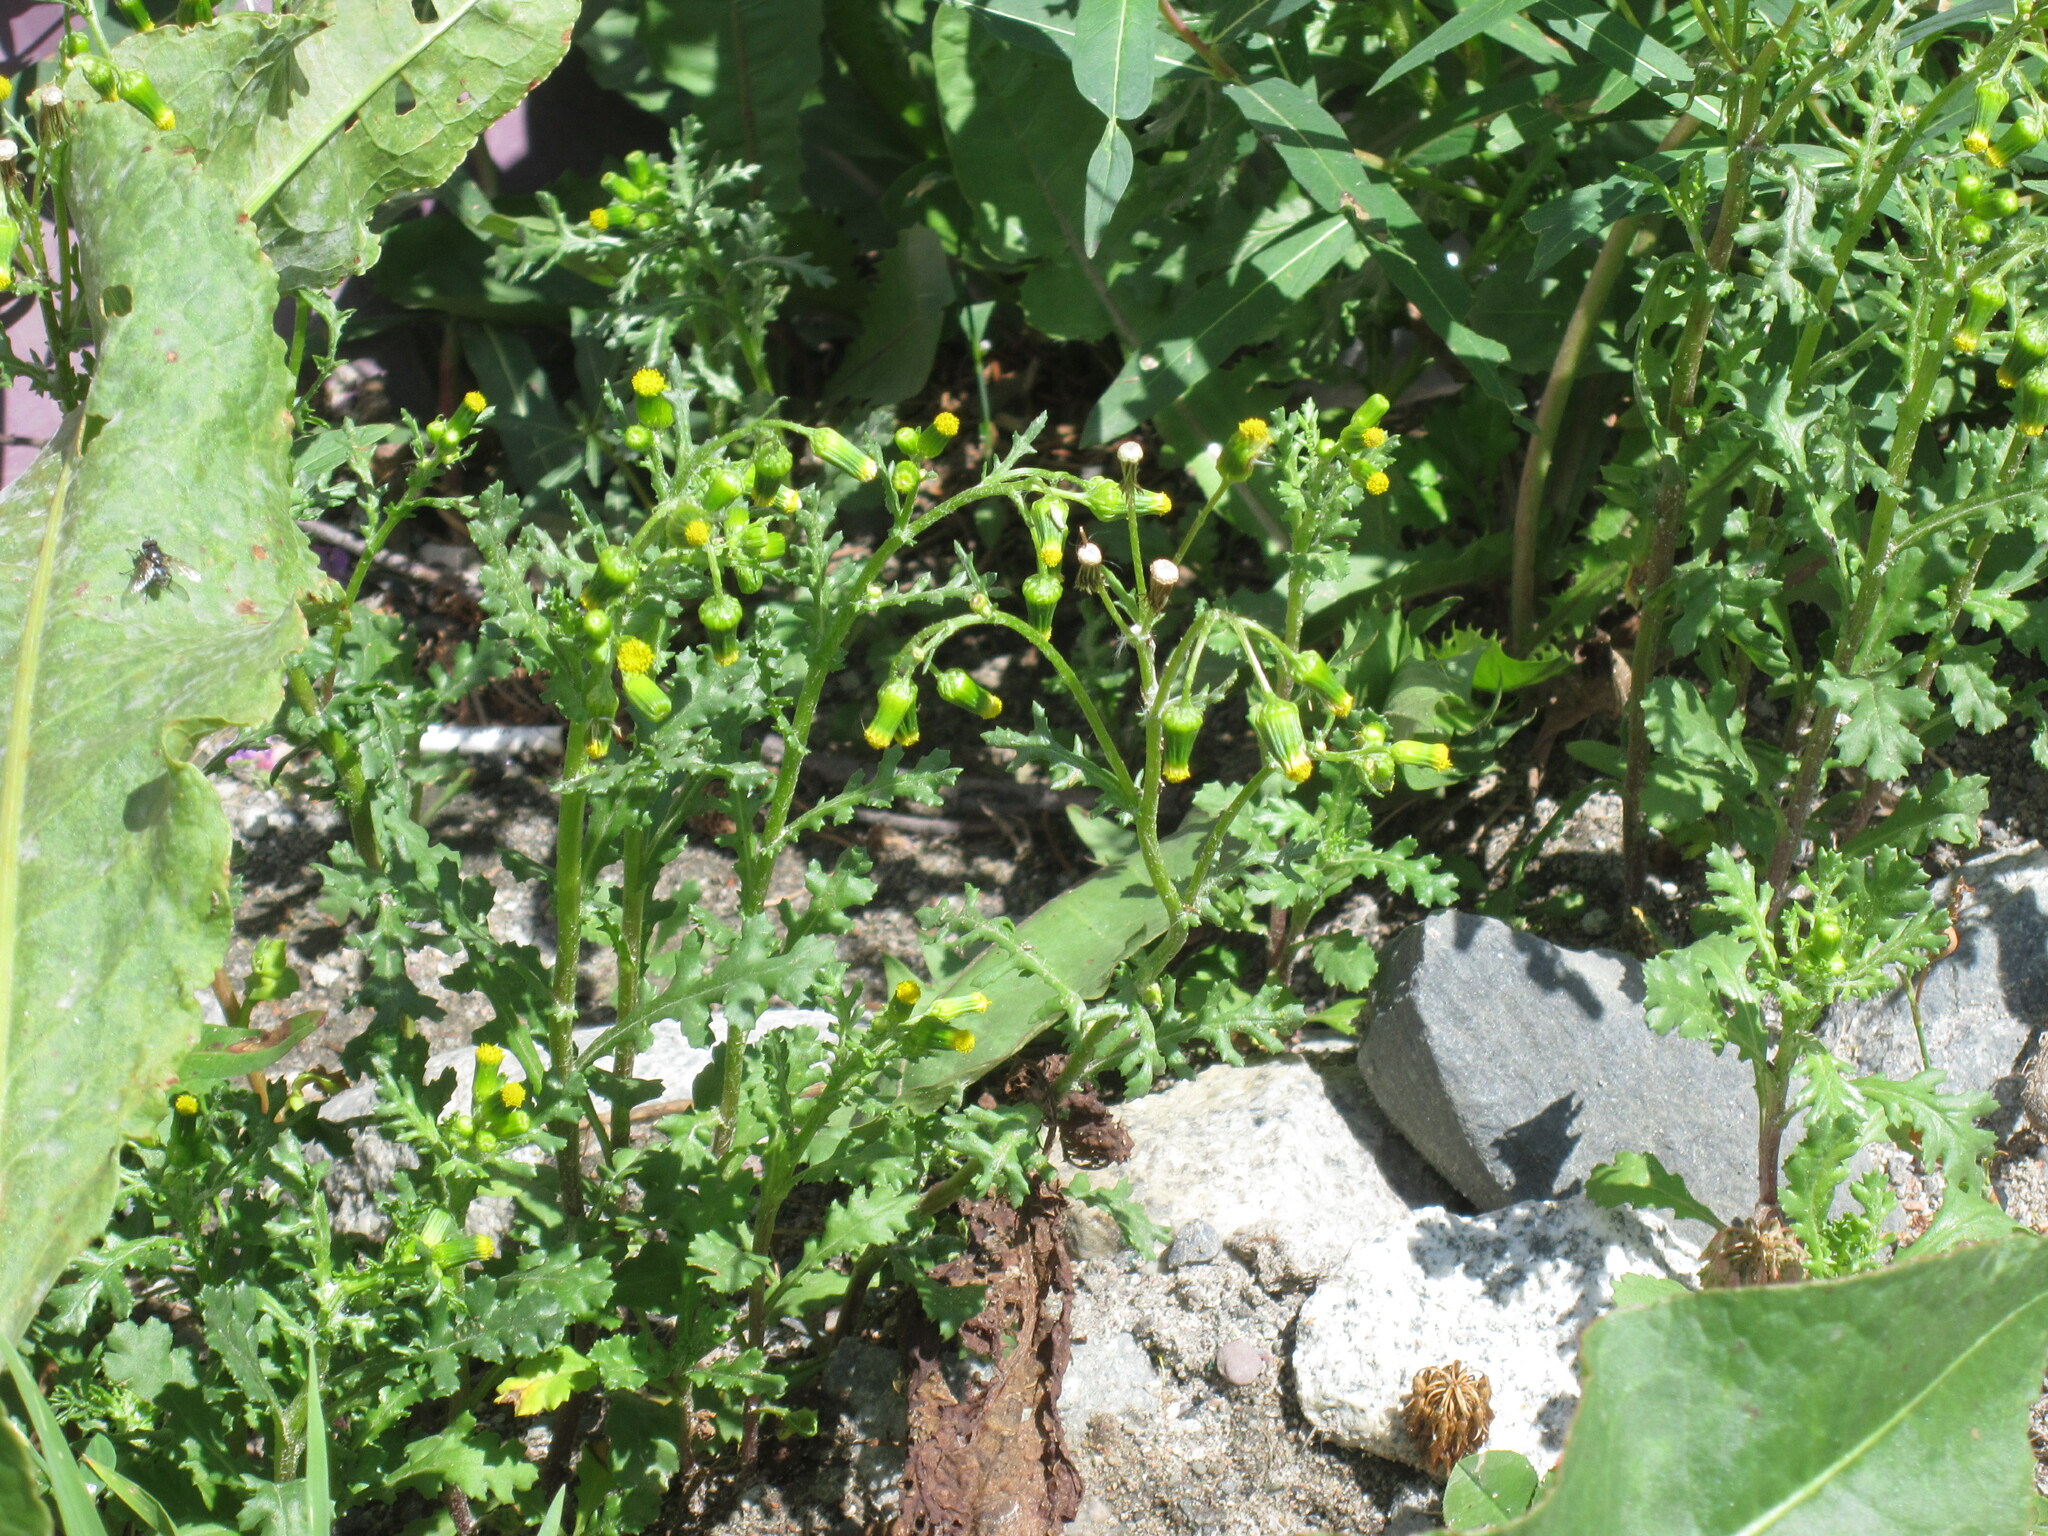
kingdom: Plantae
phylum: Tracheophyta
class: Magnoliopsida
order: Asterales
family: Asteraceae
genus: Senecio
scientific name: Senecio vulgaris
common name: Old-man-in-the-spring
